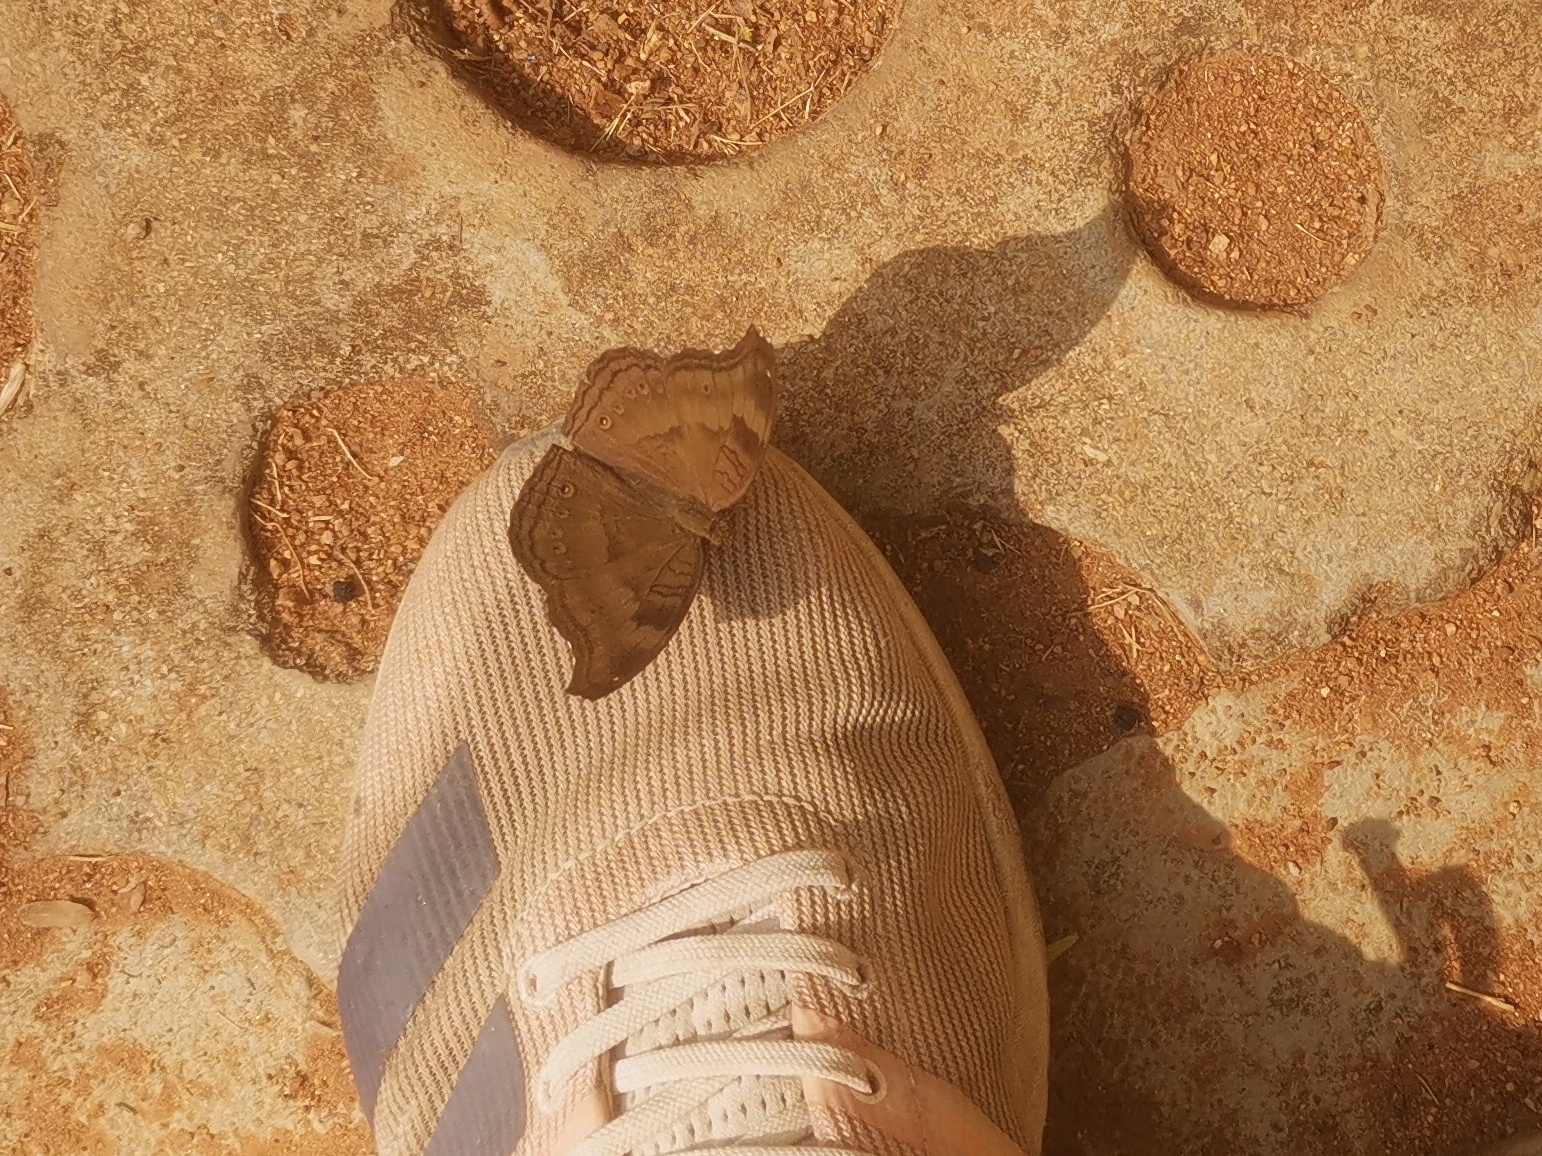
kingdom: Animalia
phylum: Arthropoda
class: Insecta
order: Lepidoptera
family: Nymphalidae
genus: Junonia
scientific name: Junonia iphita
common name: Chocolate pansy
